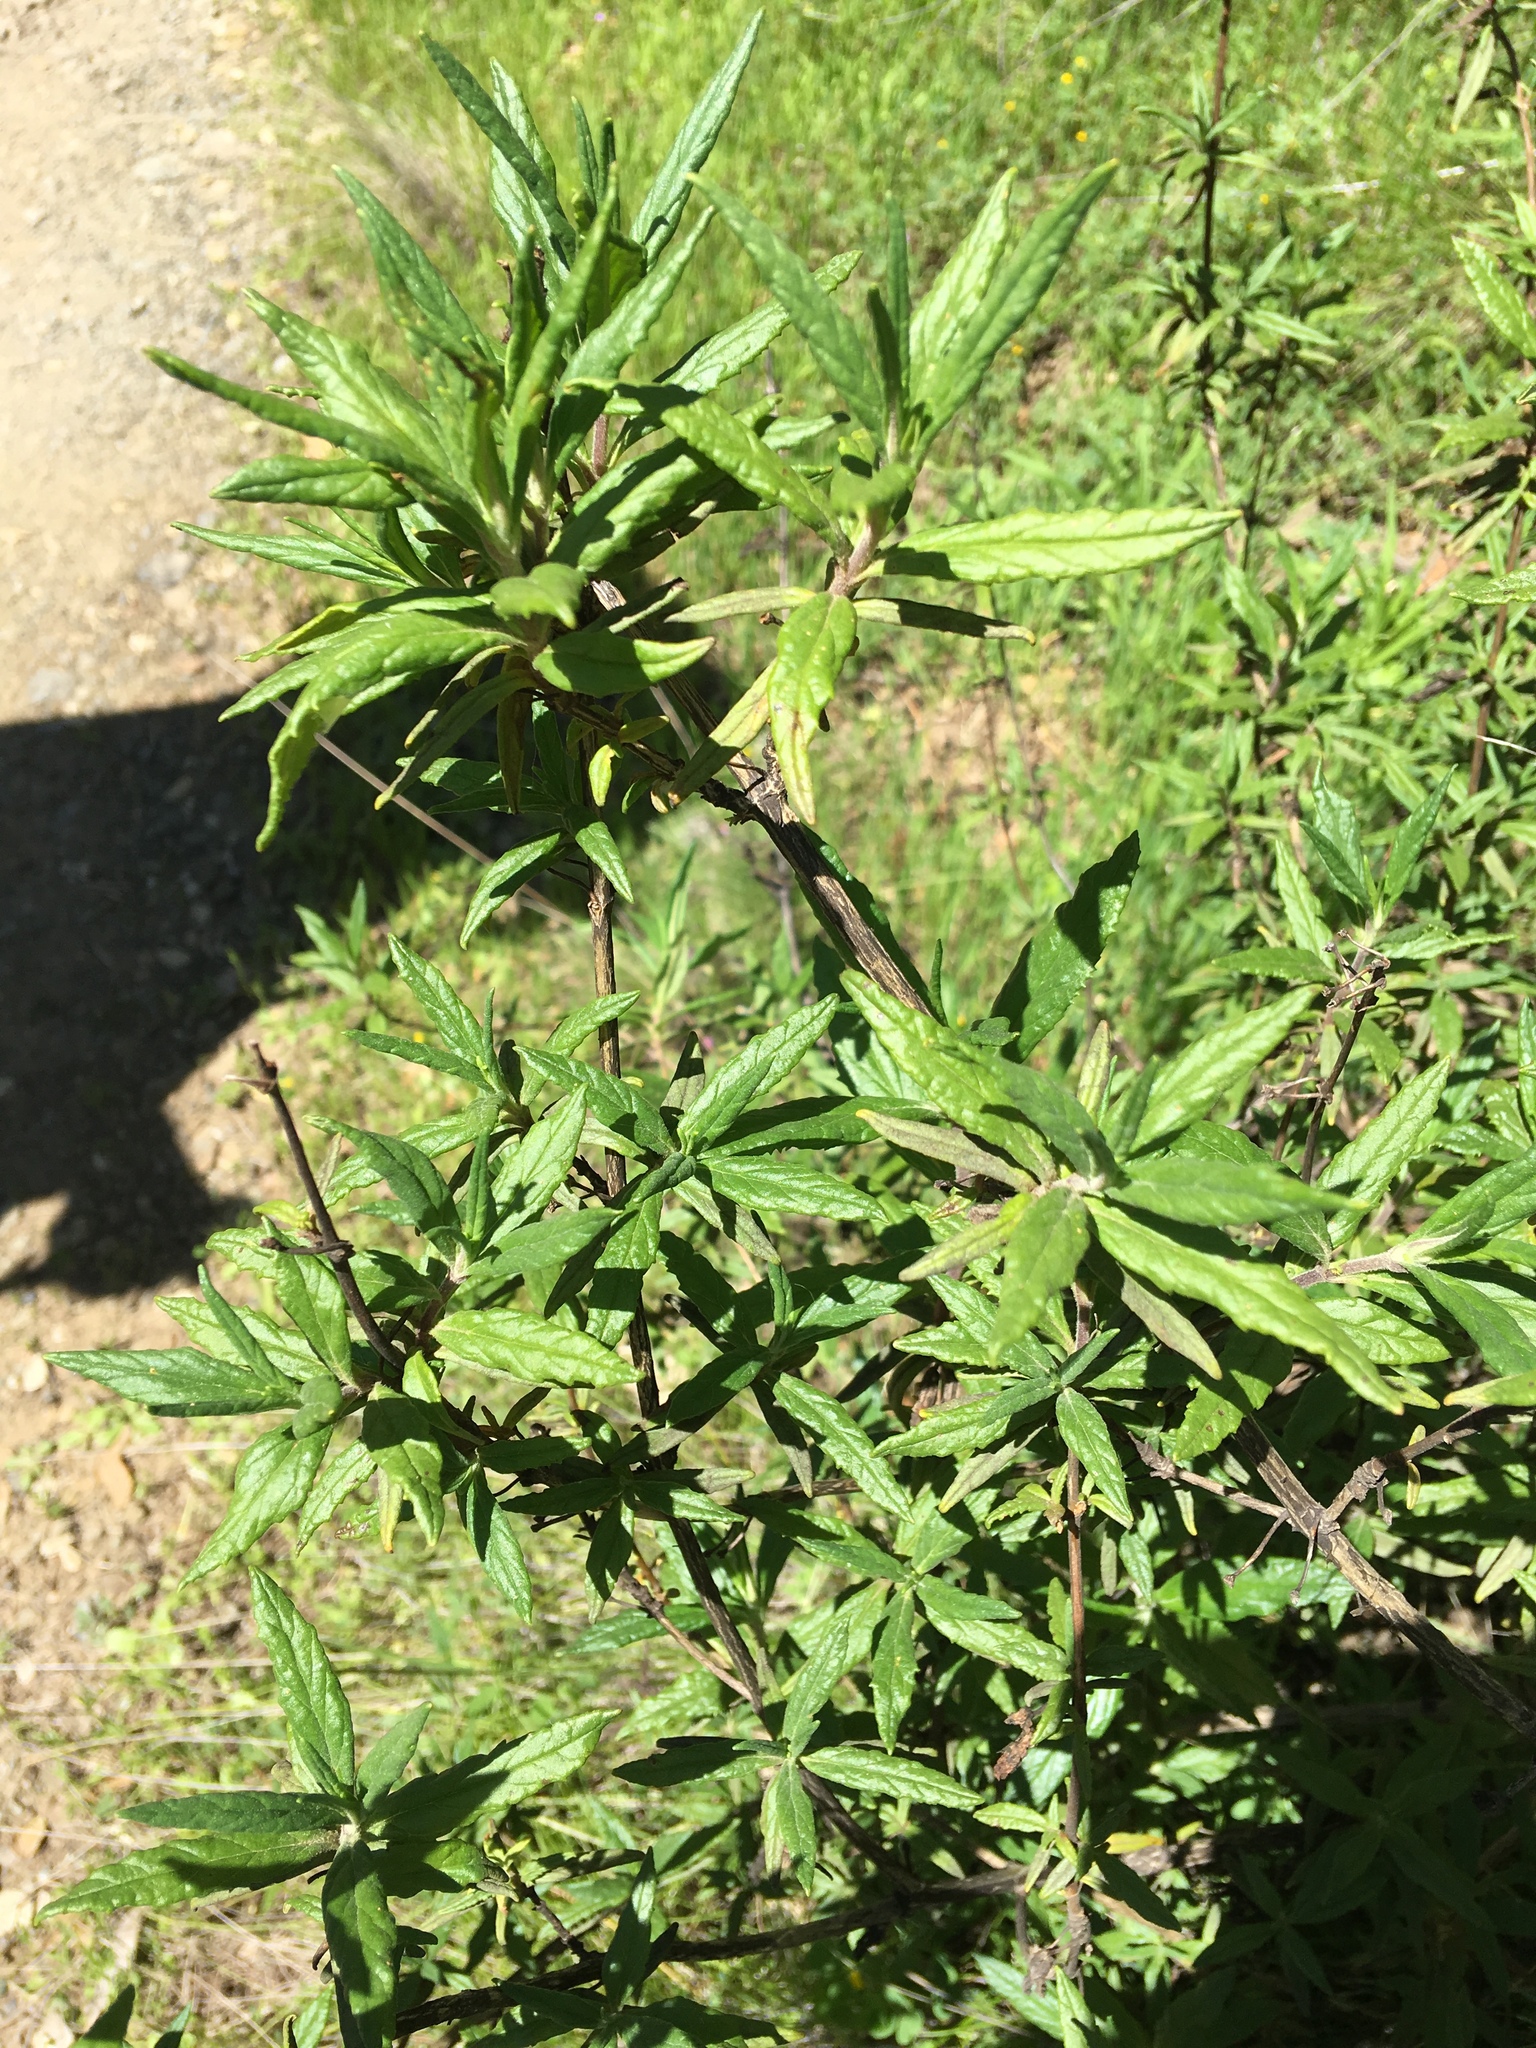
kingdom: Plantae
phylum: Tracheophyta
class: Magnoliopsida
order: Lamiales
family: Phrymaceae
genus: Diplacus
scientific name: Diplacus aurantiacus
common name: Bush monkey-flower
